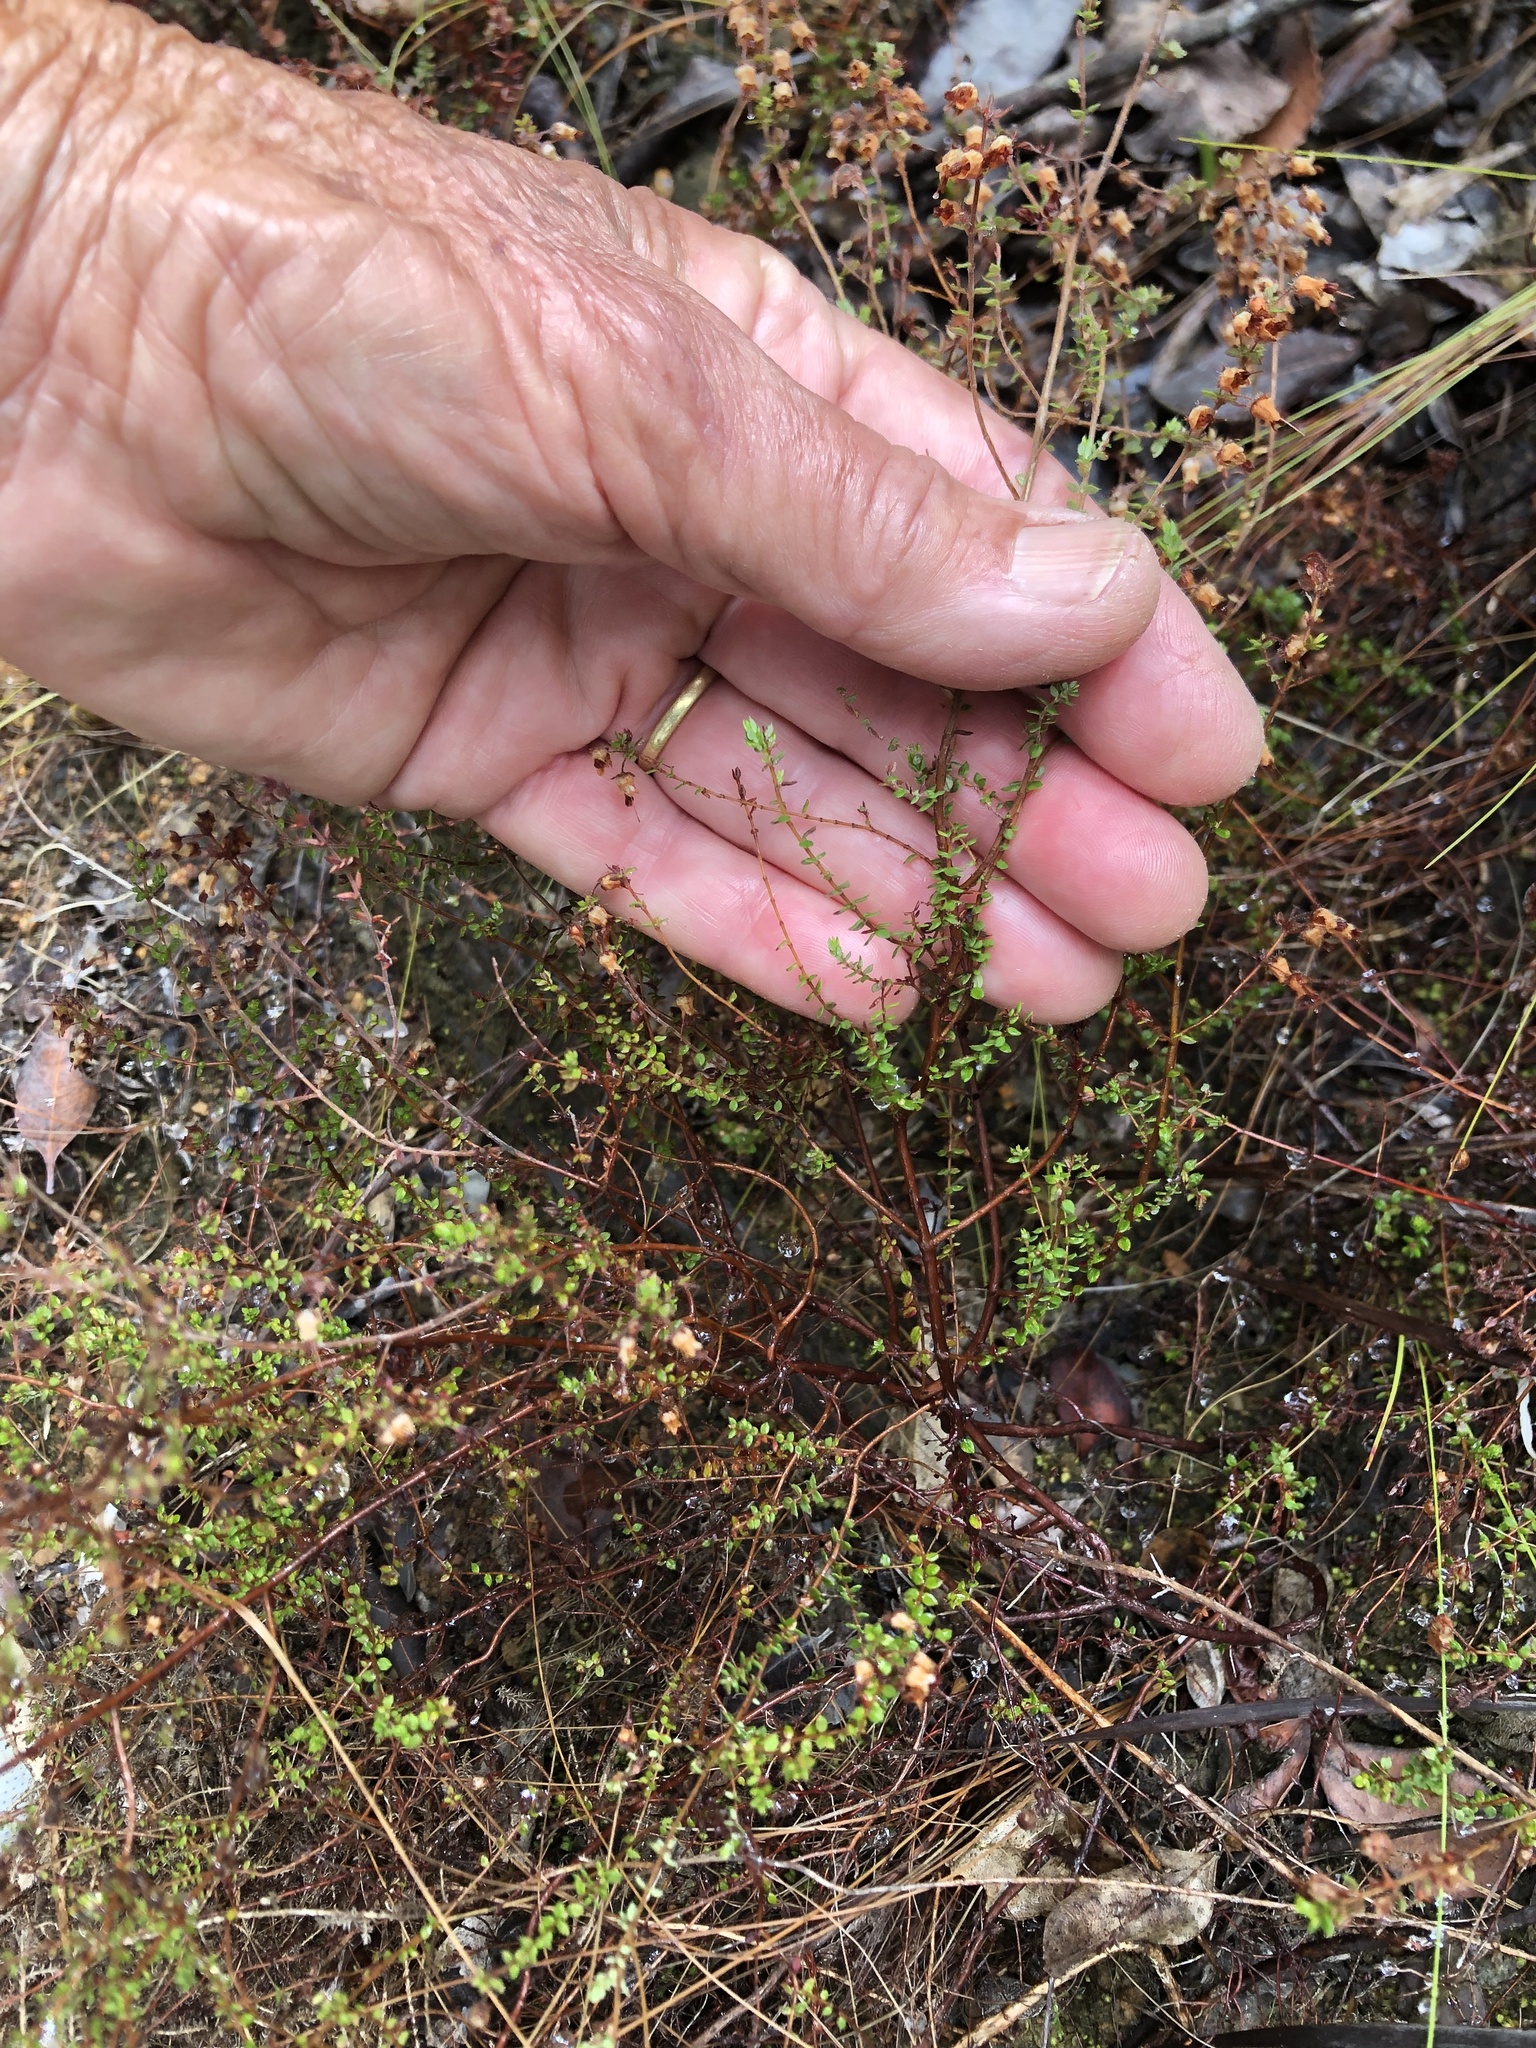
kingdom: Plantae
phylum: Tracheophyta
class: Magnoliopsida
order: Ericales
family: Ericaceae
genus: Erica
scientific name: Erica thimifolia
